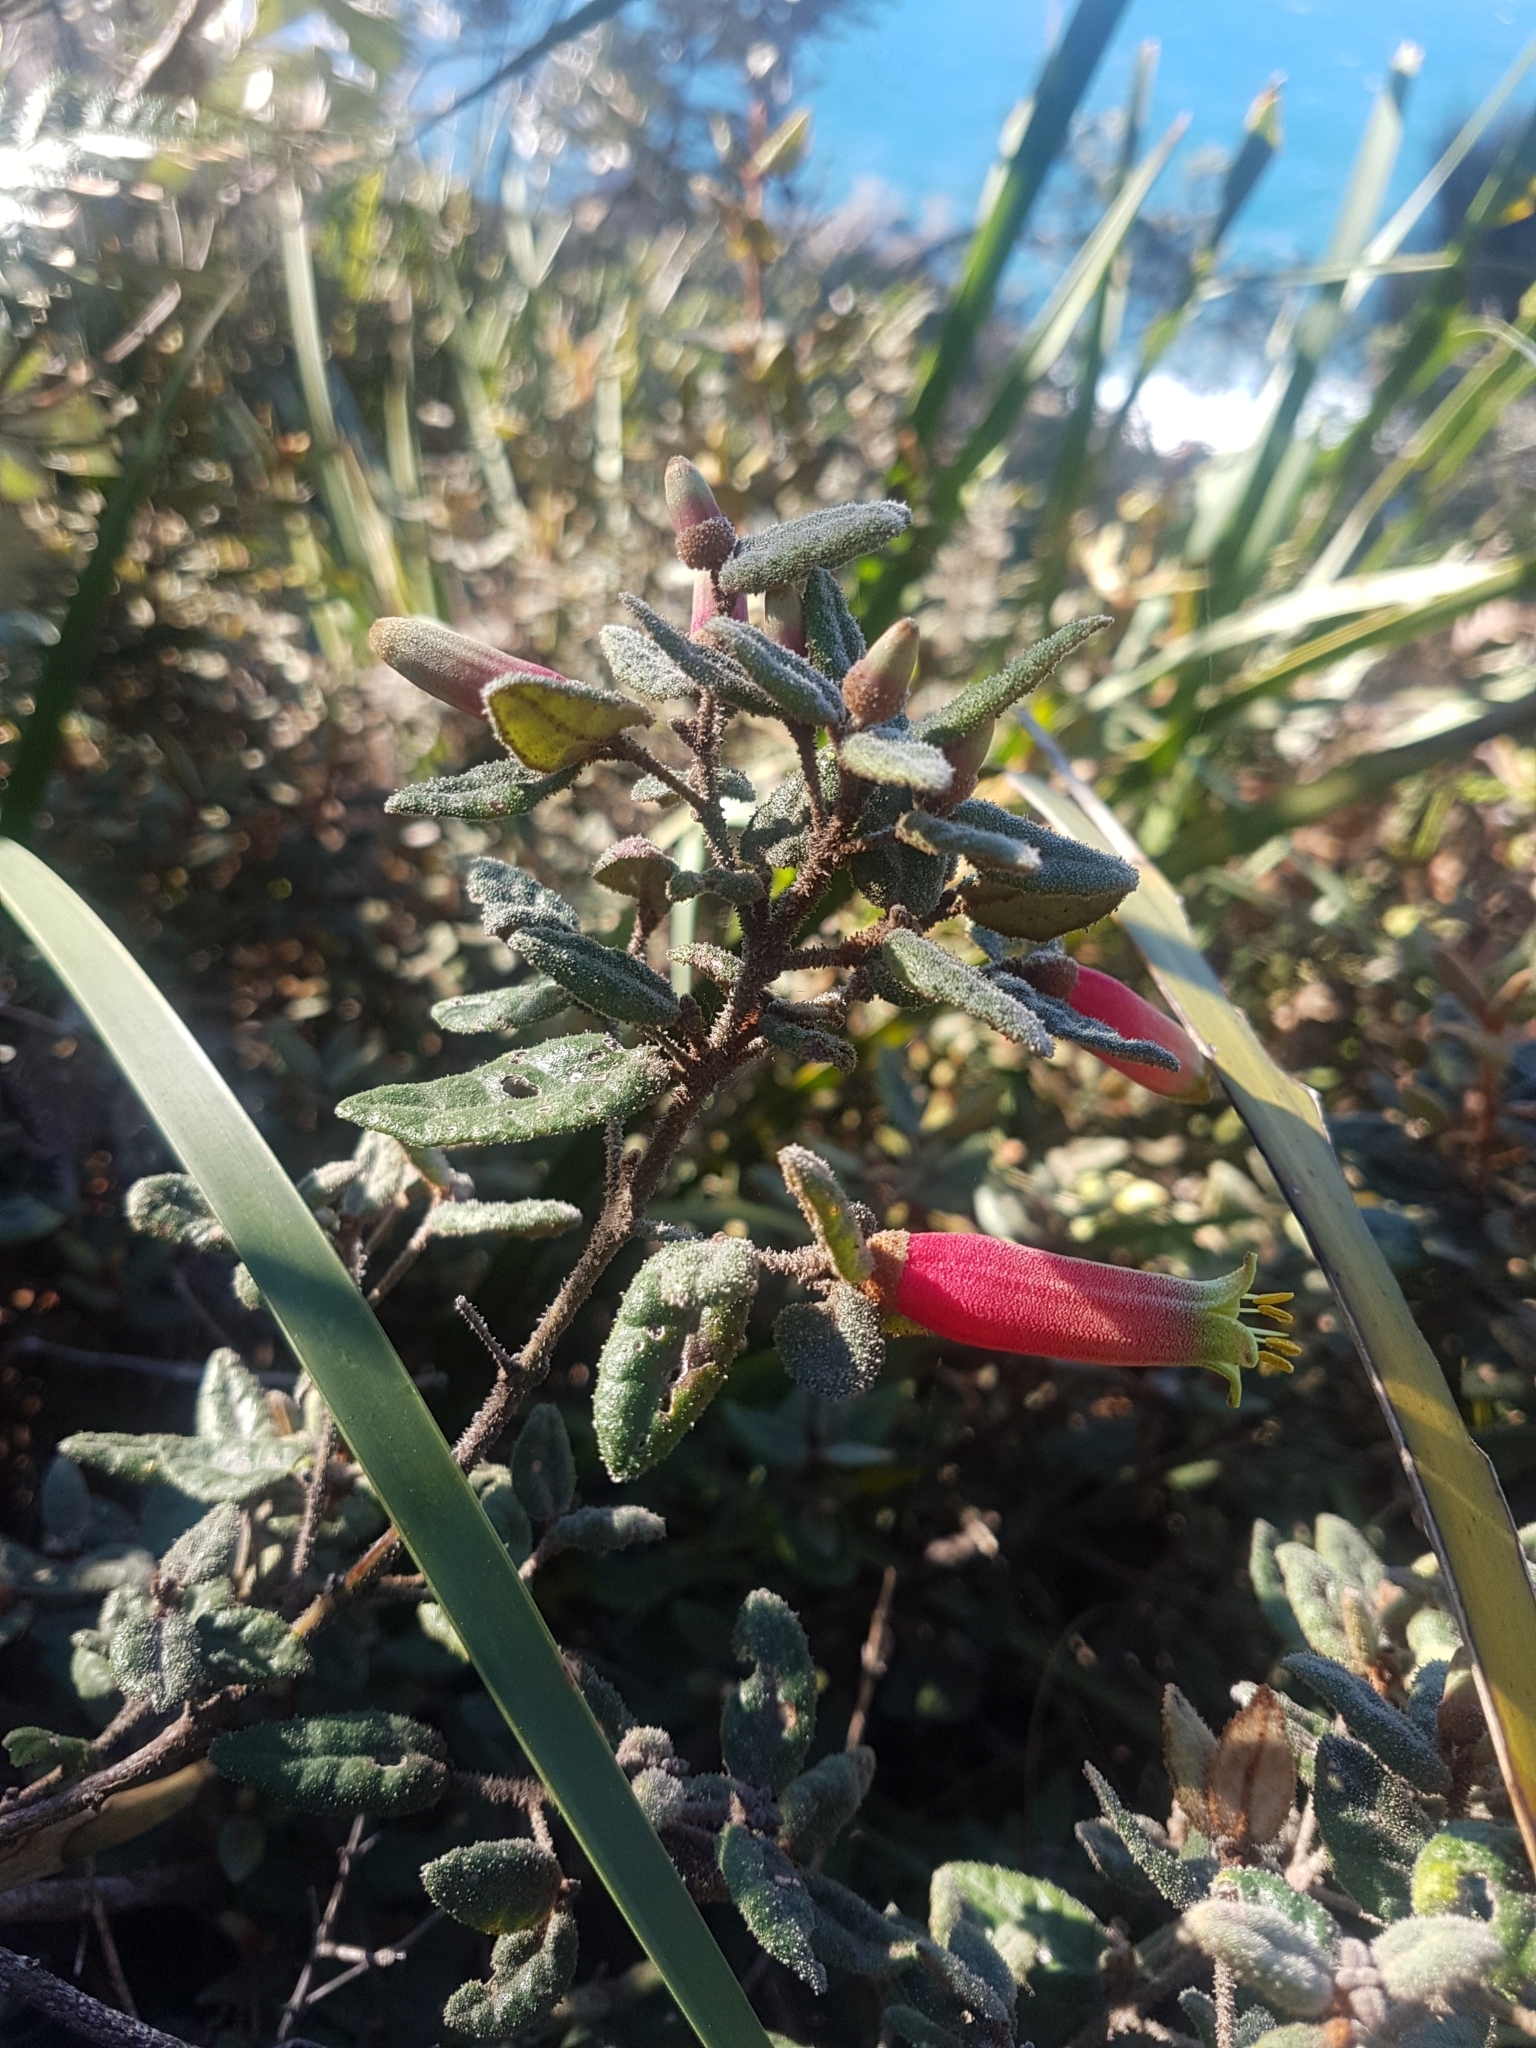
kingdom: Plantae
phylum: Tracheophyta
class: Magnoliopsida
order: Sapindales
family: Rutaceae
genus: Correa
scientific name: Correa reflexa
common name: Common correa
